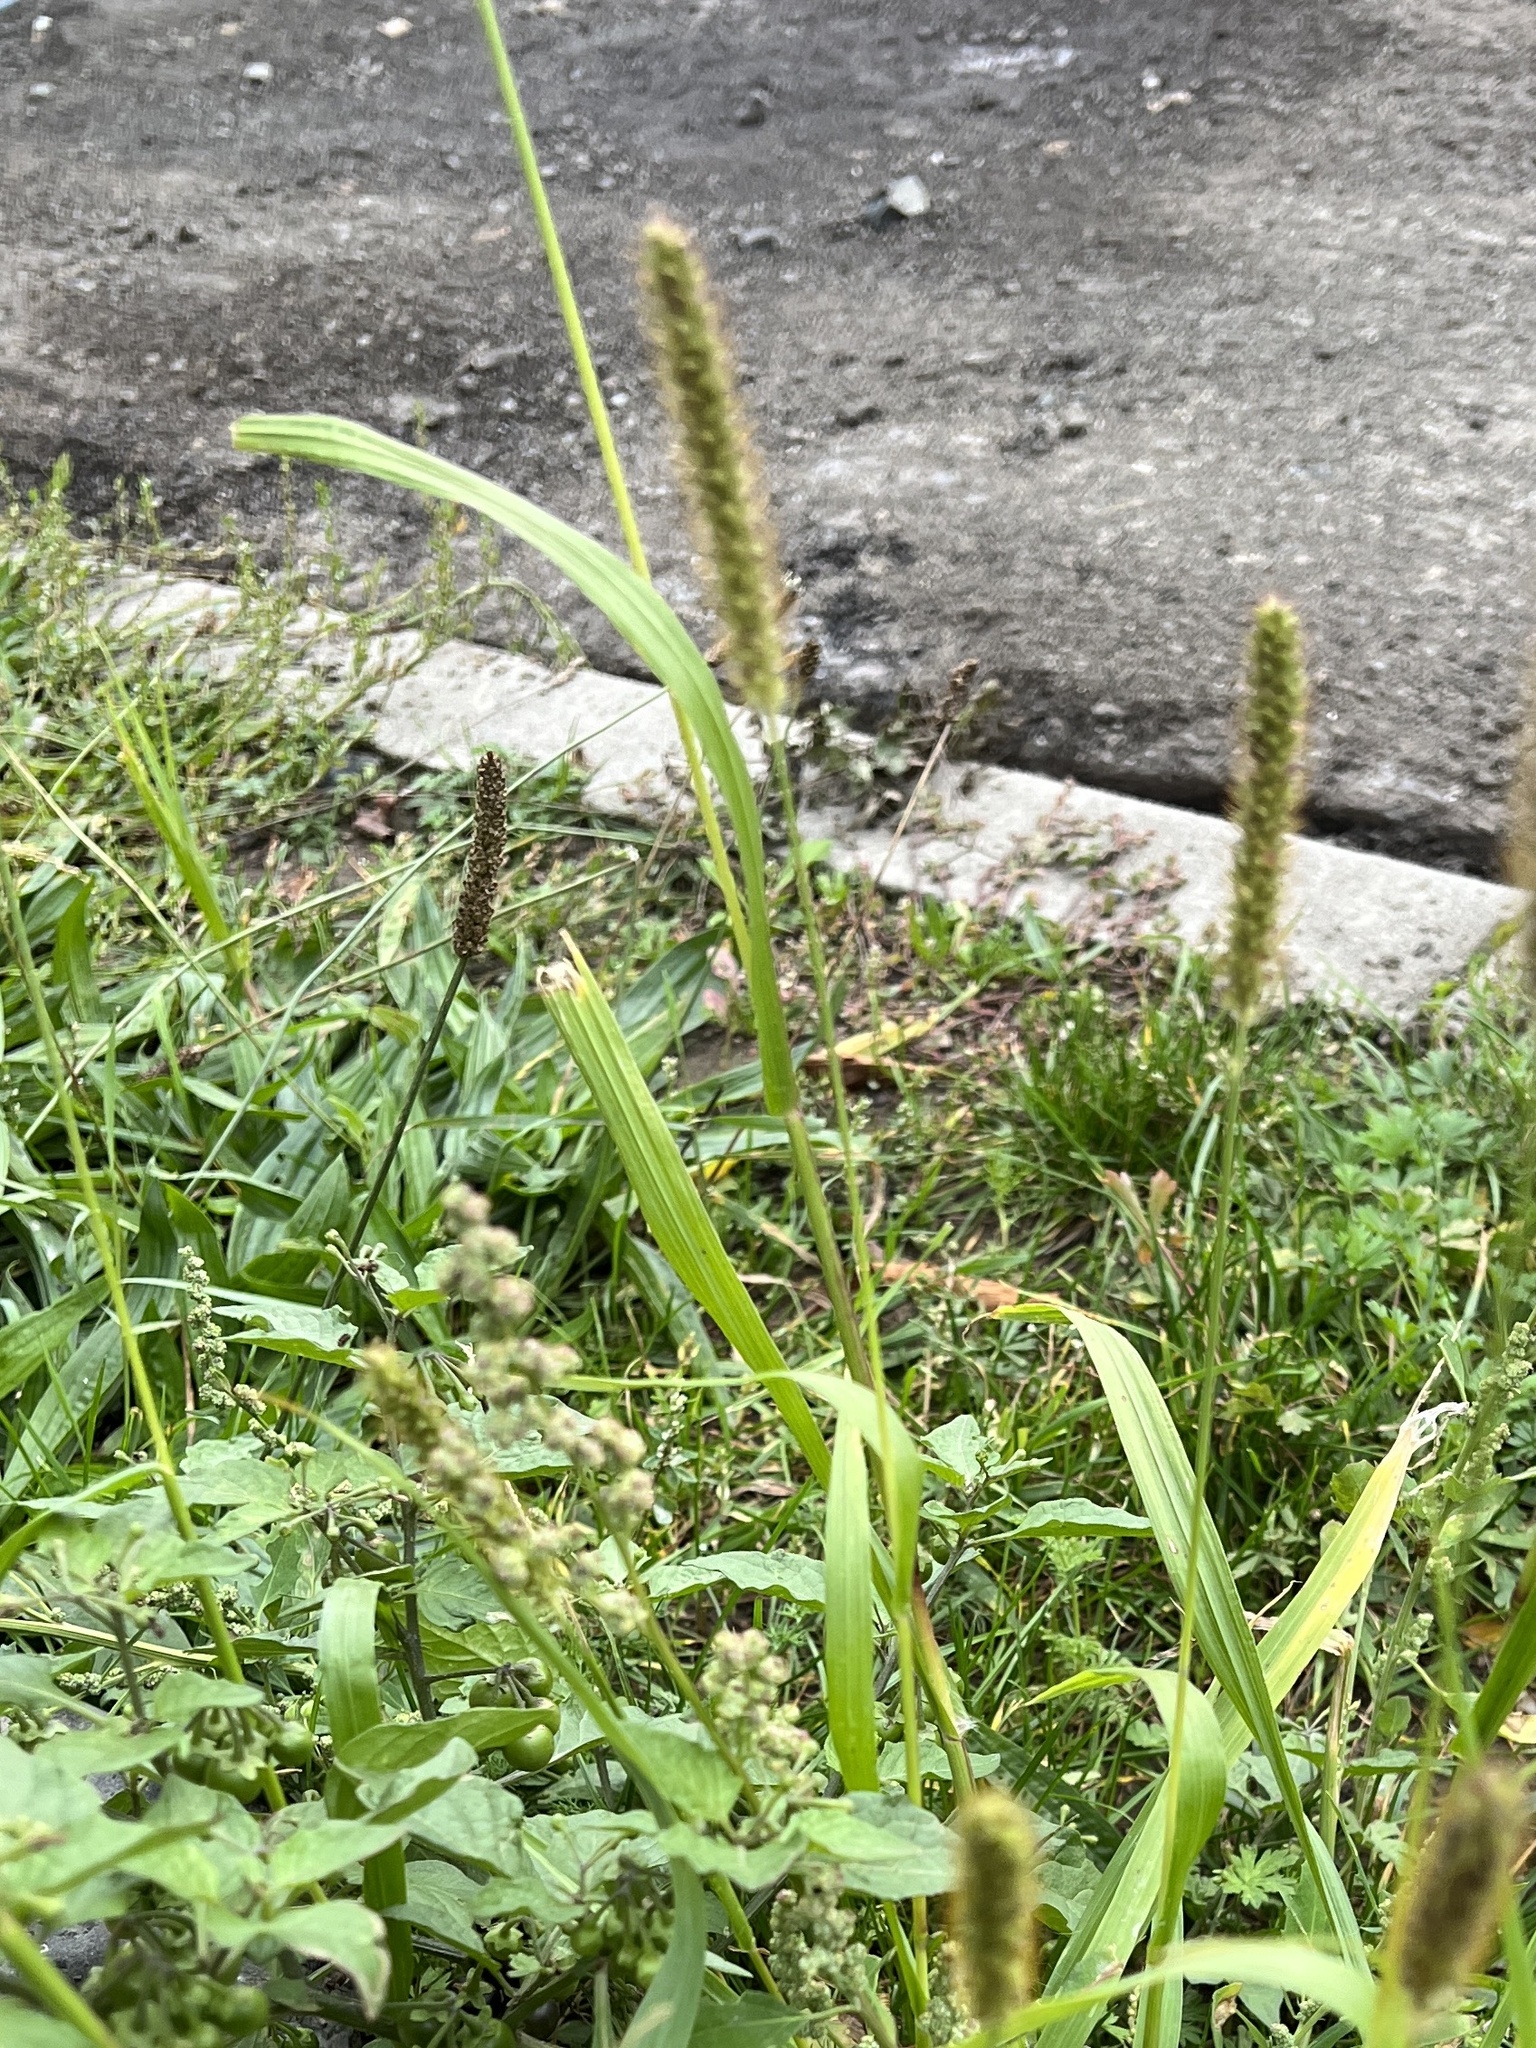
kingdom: Plantae
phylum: Tracheophyta
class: Liliopsida
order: Poales
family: Poaceae
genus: Setaria
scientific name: Setaria pumila
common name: Yellow bristle-grass
